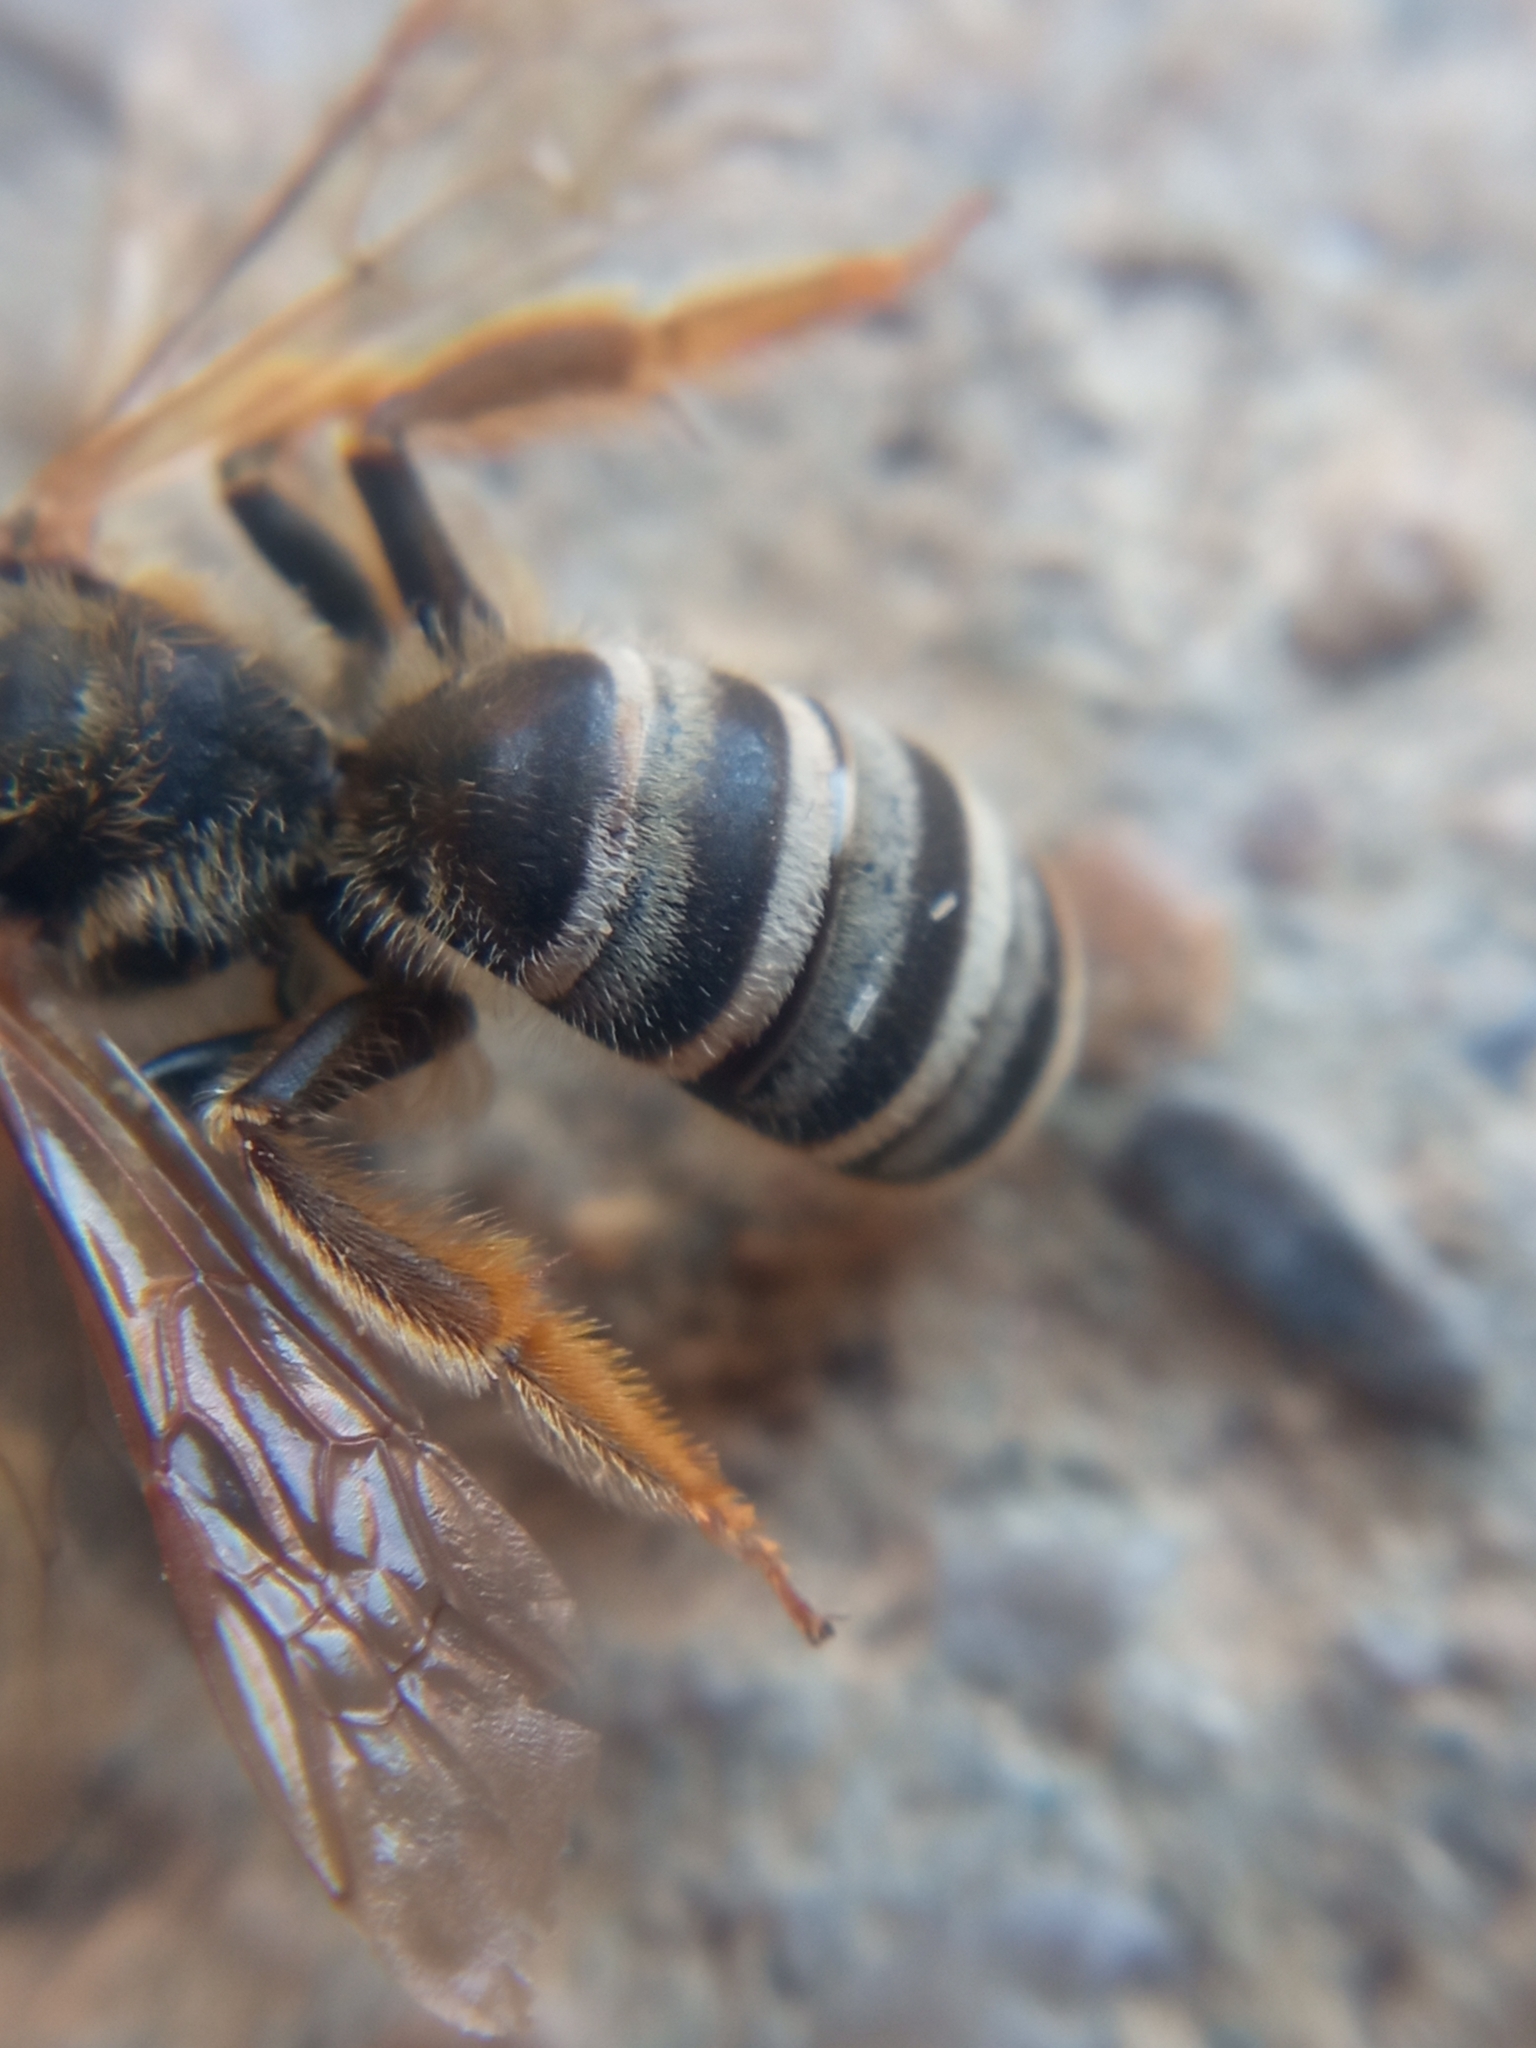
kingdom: Animalia
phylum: Arthropoda
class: Insecta
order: Hymenoptera
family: Halictidae
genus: Halictus
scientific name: Halictus scabiosae
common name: Great banded furrow bee
